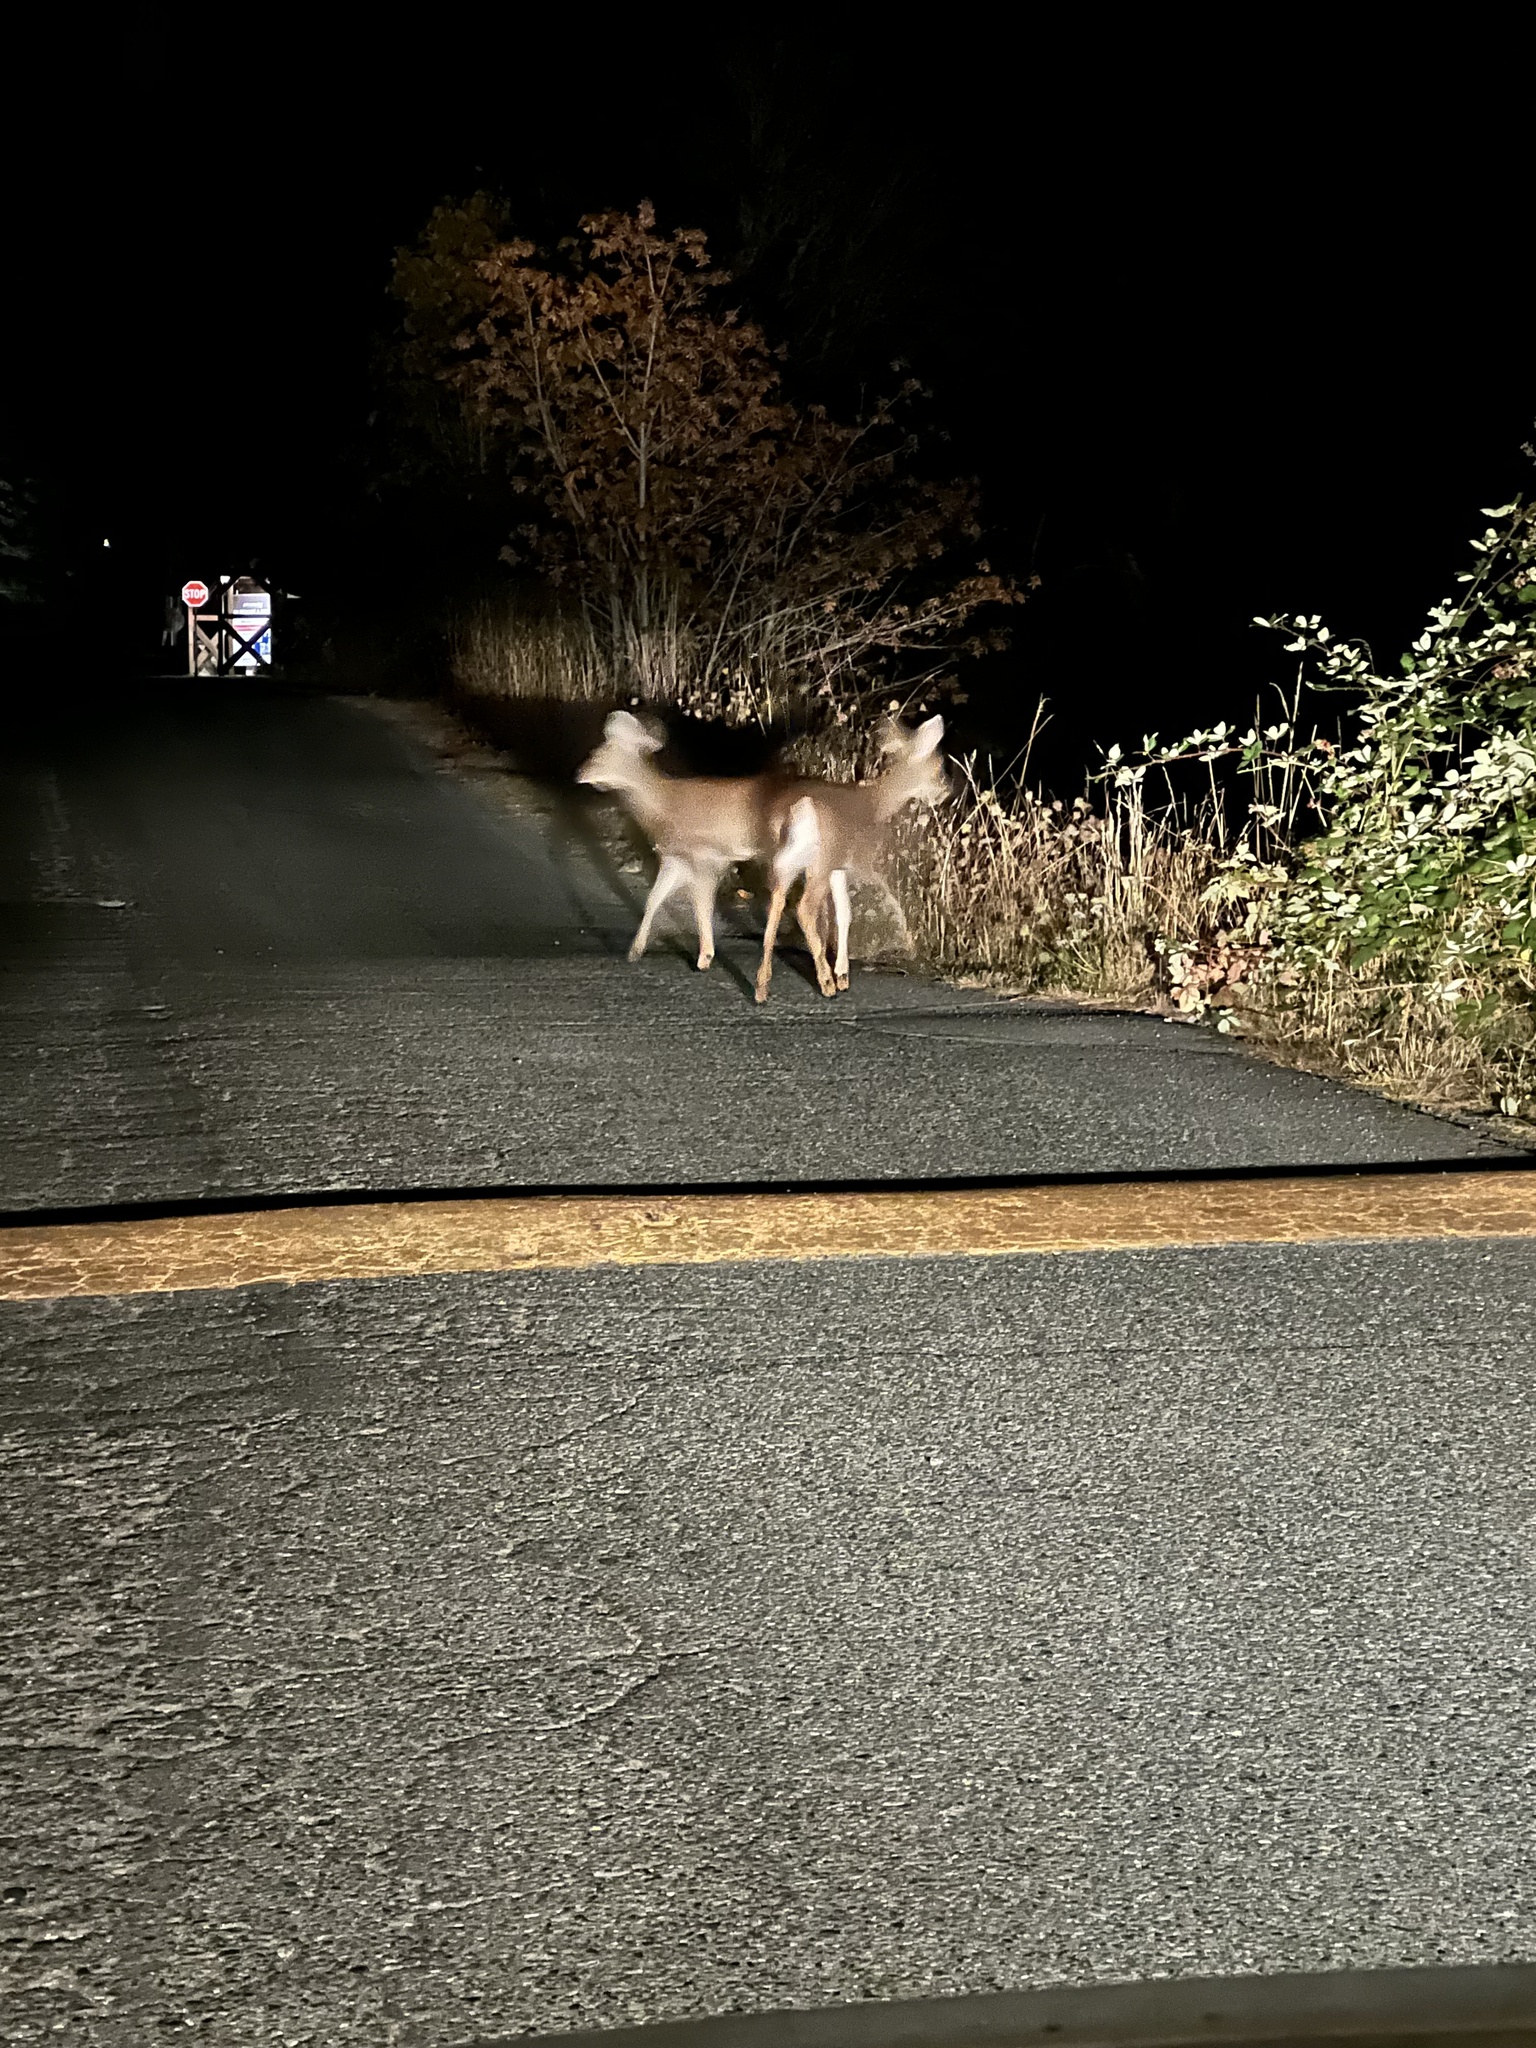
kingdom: Animalia
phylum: Chordata
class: Mammalia
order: Artiodactyla
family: Cervidae
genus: Odocoileus
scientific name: Odocoileus hemionus
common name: Mule deer
